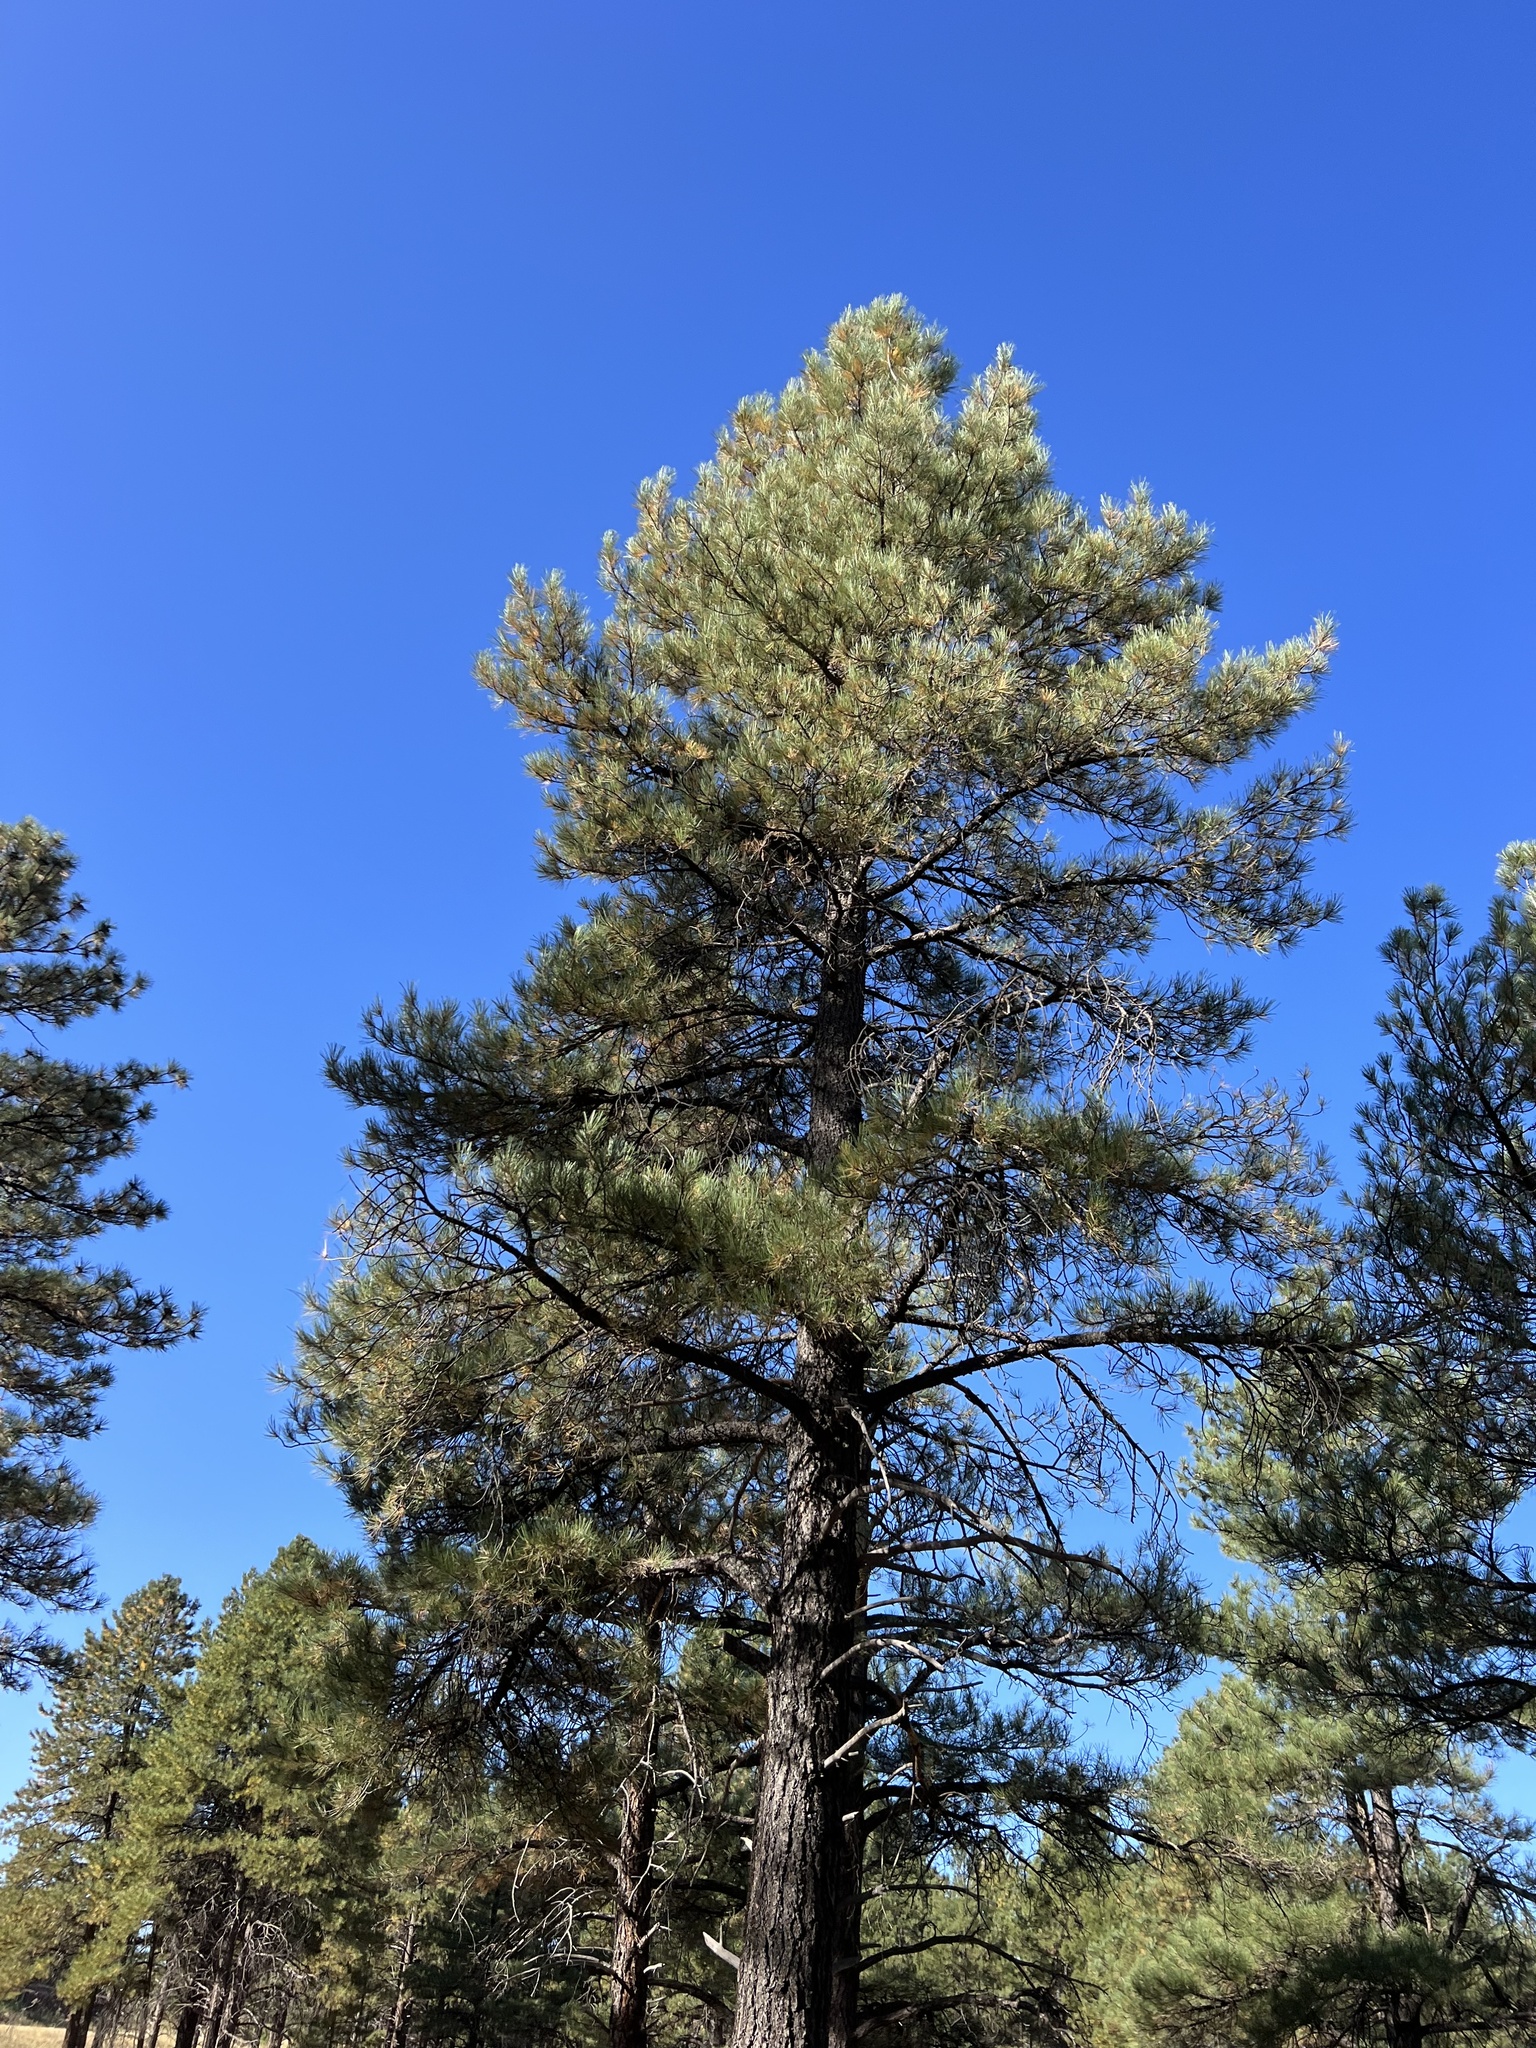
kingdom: Plantae
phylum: Tracheophyta
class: Pinopsida
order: Pinales
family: Pinaceae
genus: Pinus
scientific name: Pinus ponderosa
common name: Western yellow-pine
